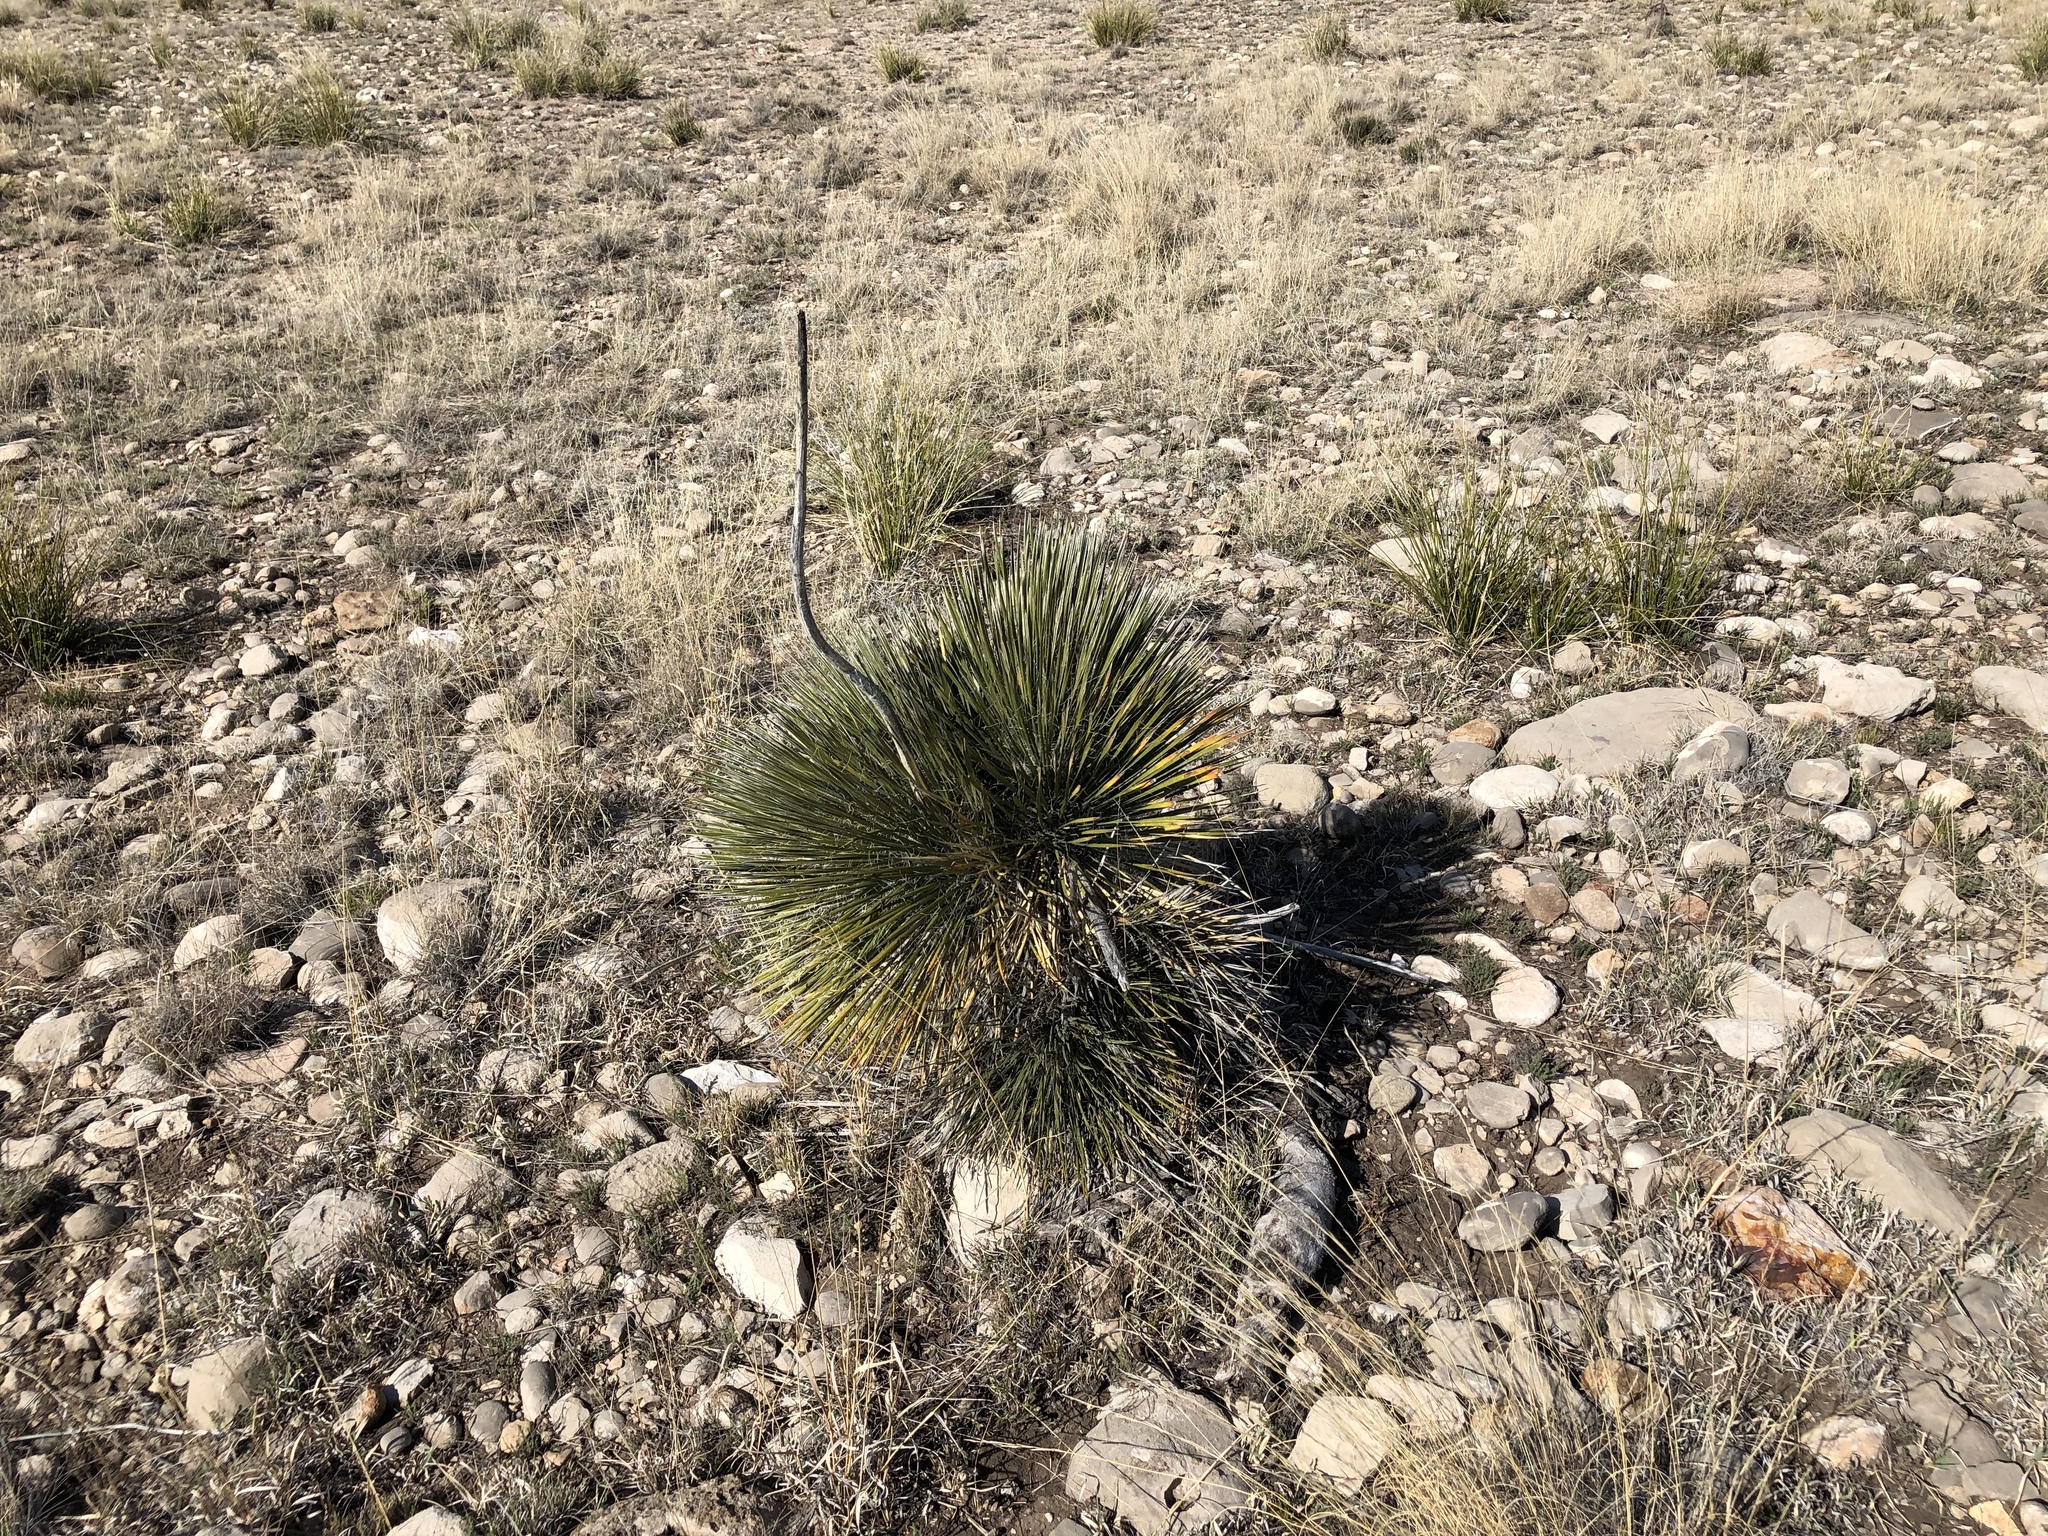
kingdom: Plantae
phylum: Tracheophyta
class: Liliopsida
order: Asparagales
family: Asparagaceae
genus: Yucca
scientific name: Yucca elata
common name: Palmella
